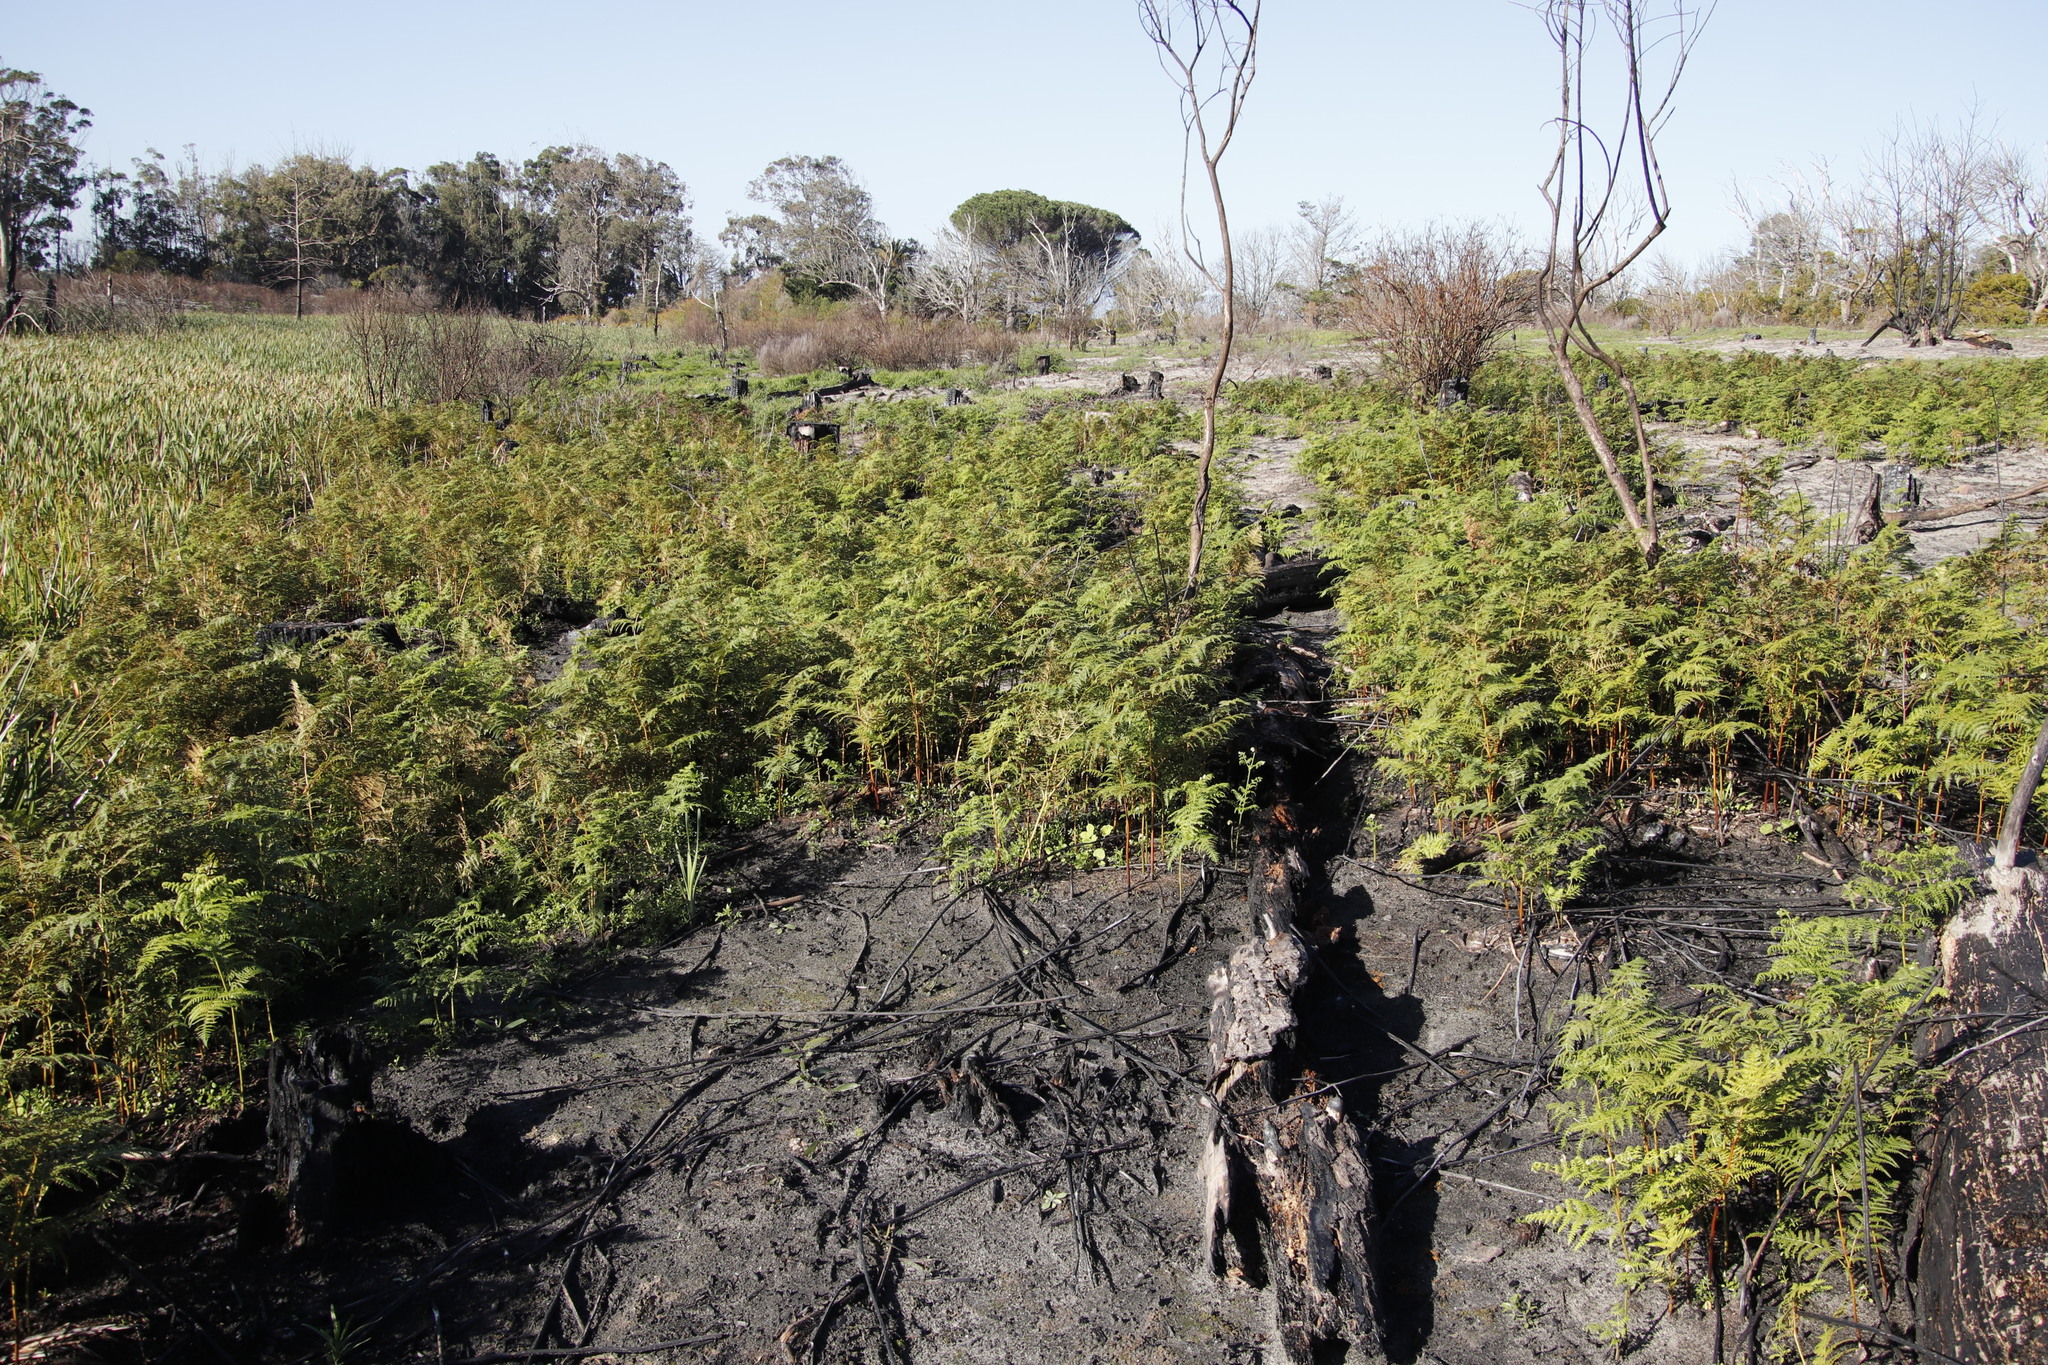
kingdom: Plantae
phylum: Tracheophyta
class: Polypodiopsida
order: Polypodiales
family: Dennstaedtiaceae
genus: Pteridium
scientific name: Pteridium aquilinum
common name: Bracken
